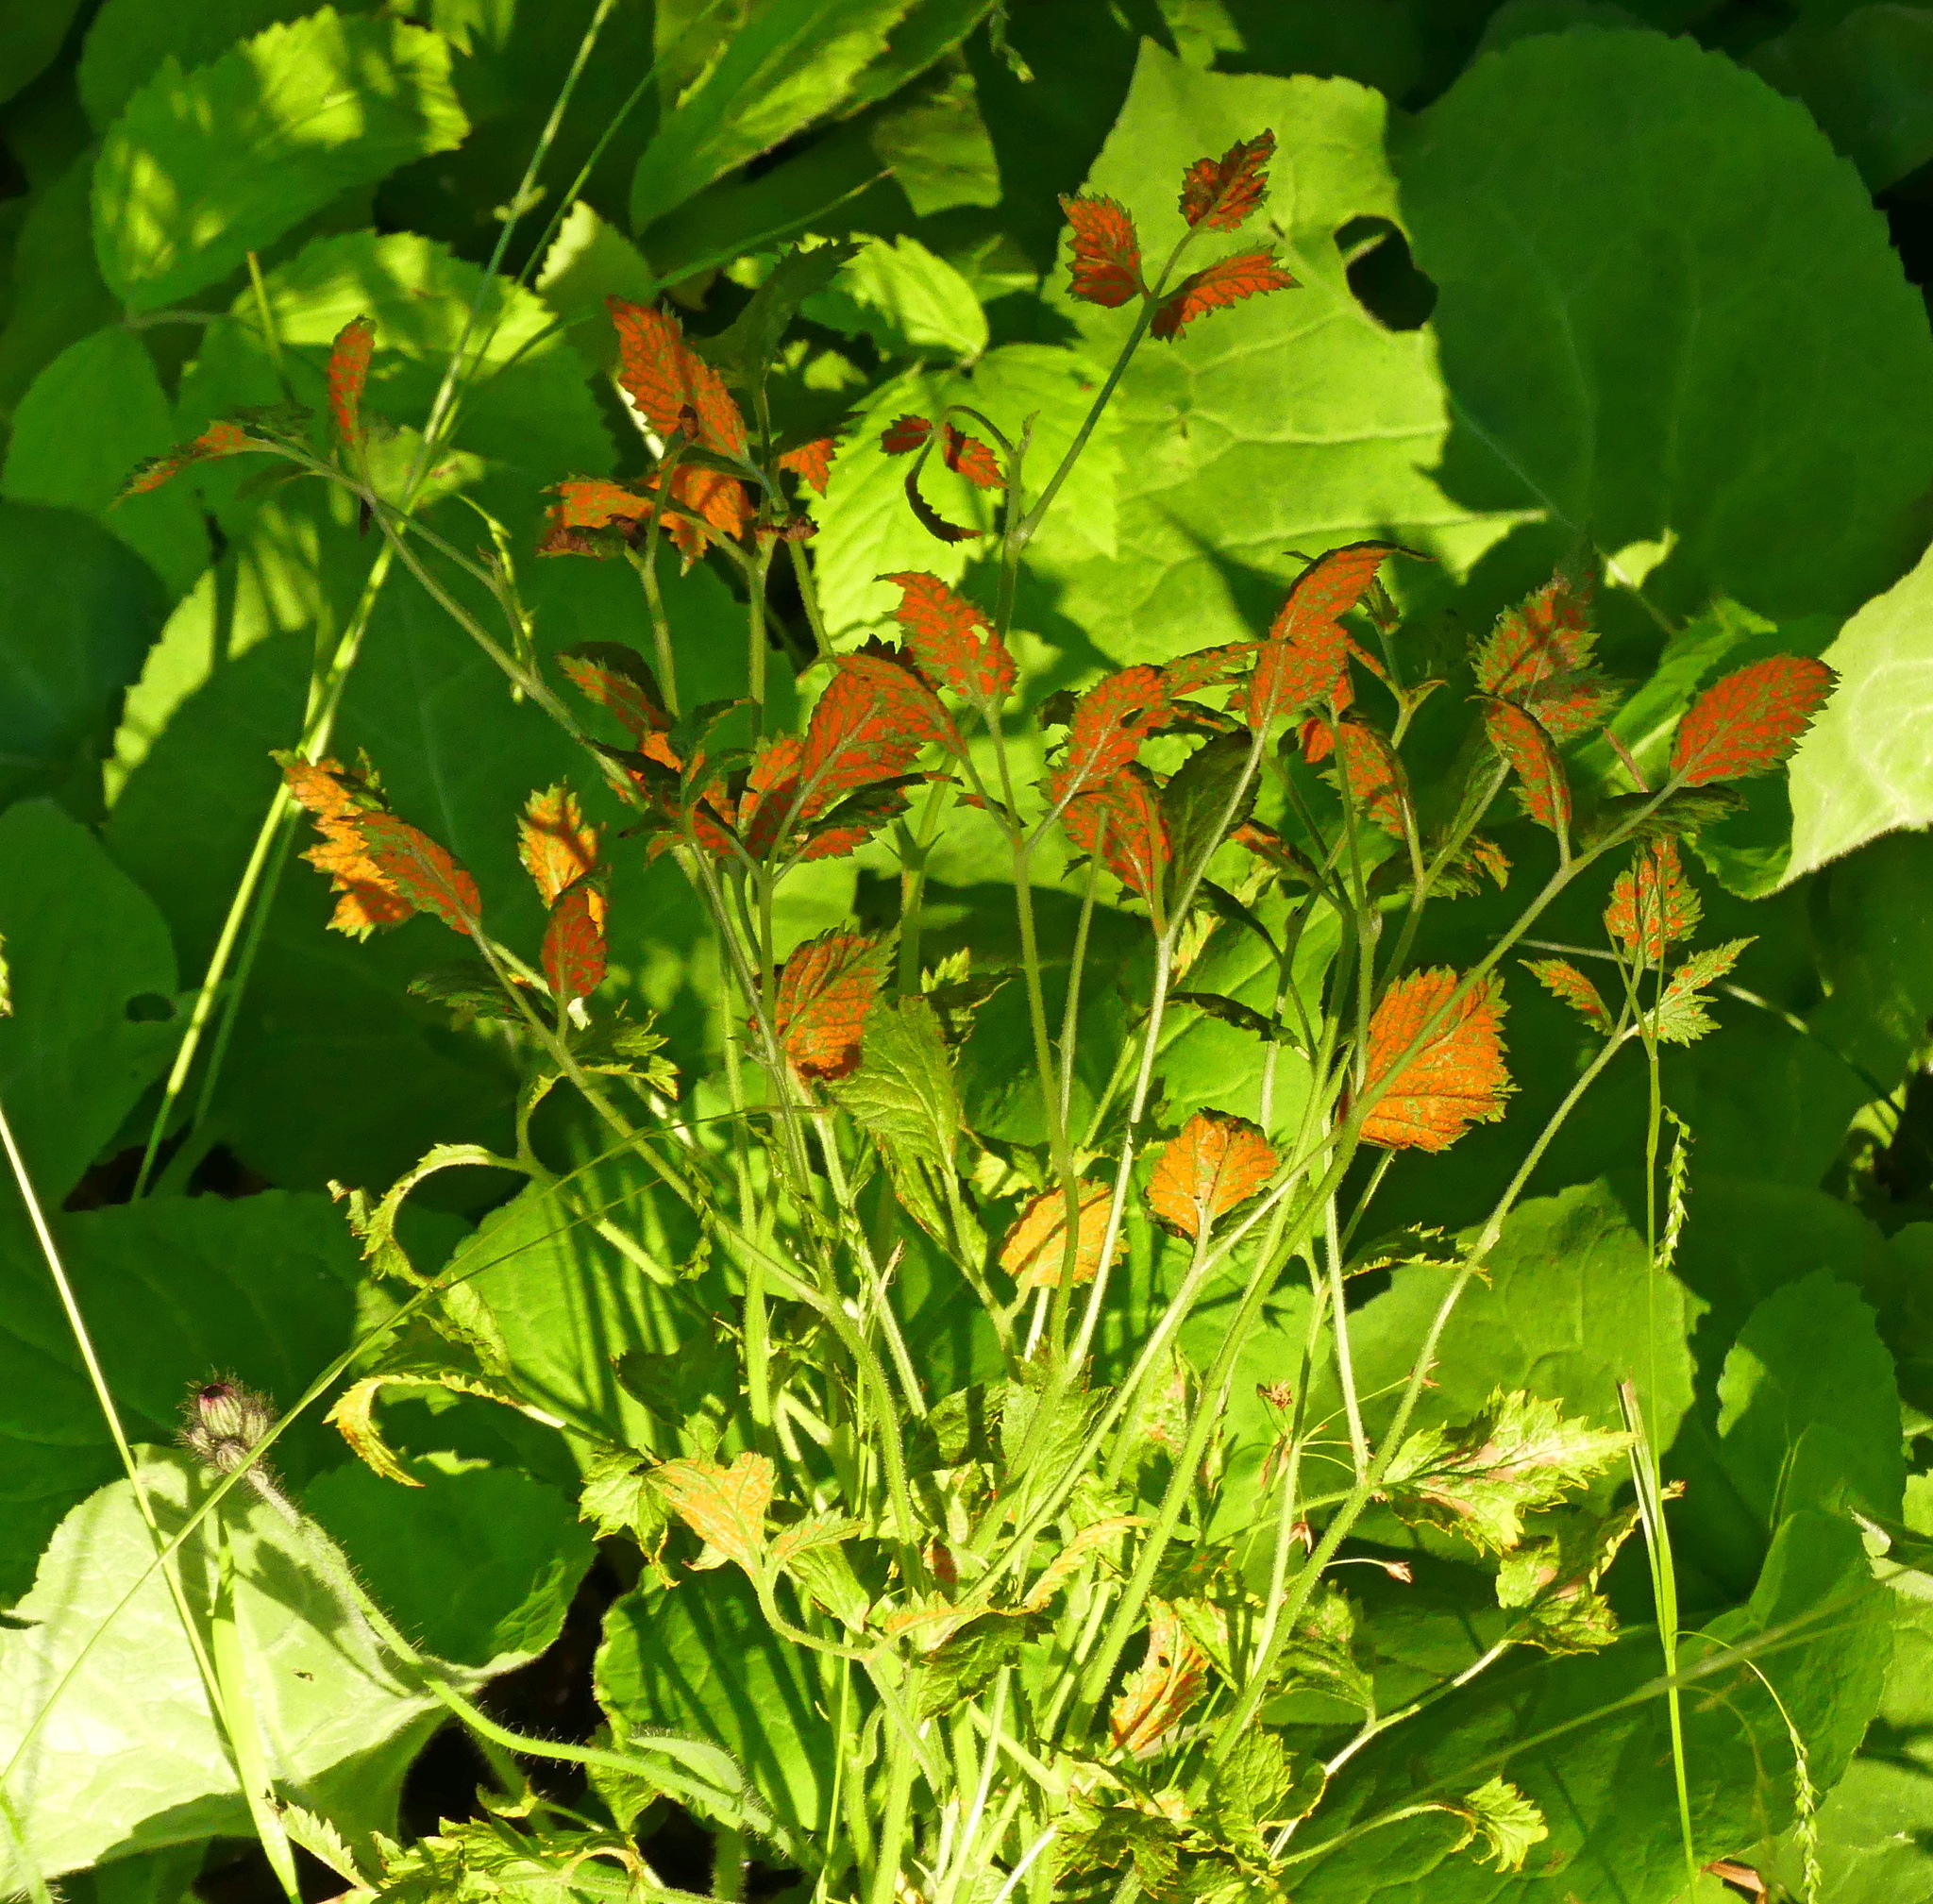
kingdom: Fungi
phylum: Basidiomycota
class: Pucciniomycetes
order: Pucciniales
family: Phragmidiaceae
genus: Arthuriomyces
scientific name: Arthuriomyces peckianus
